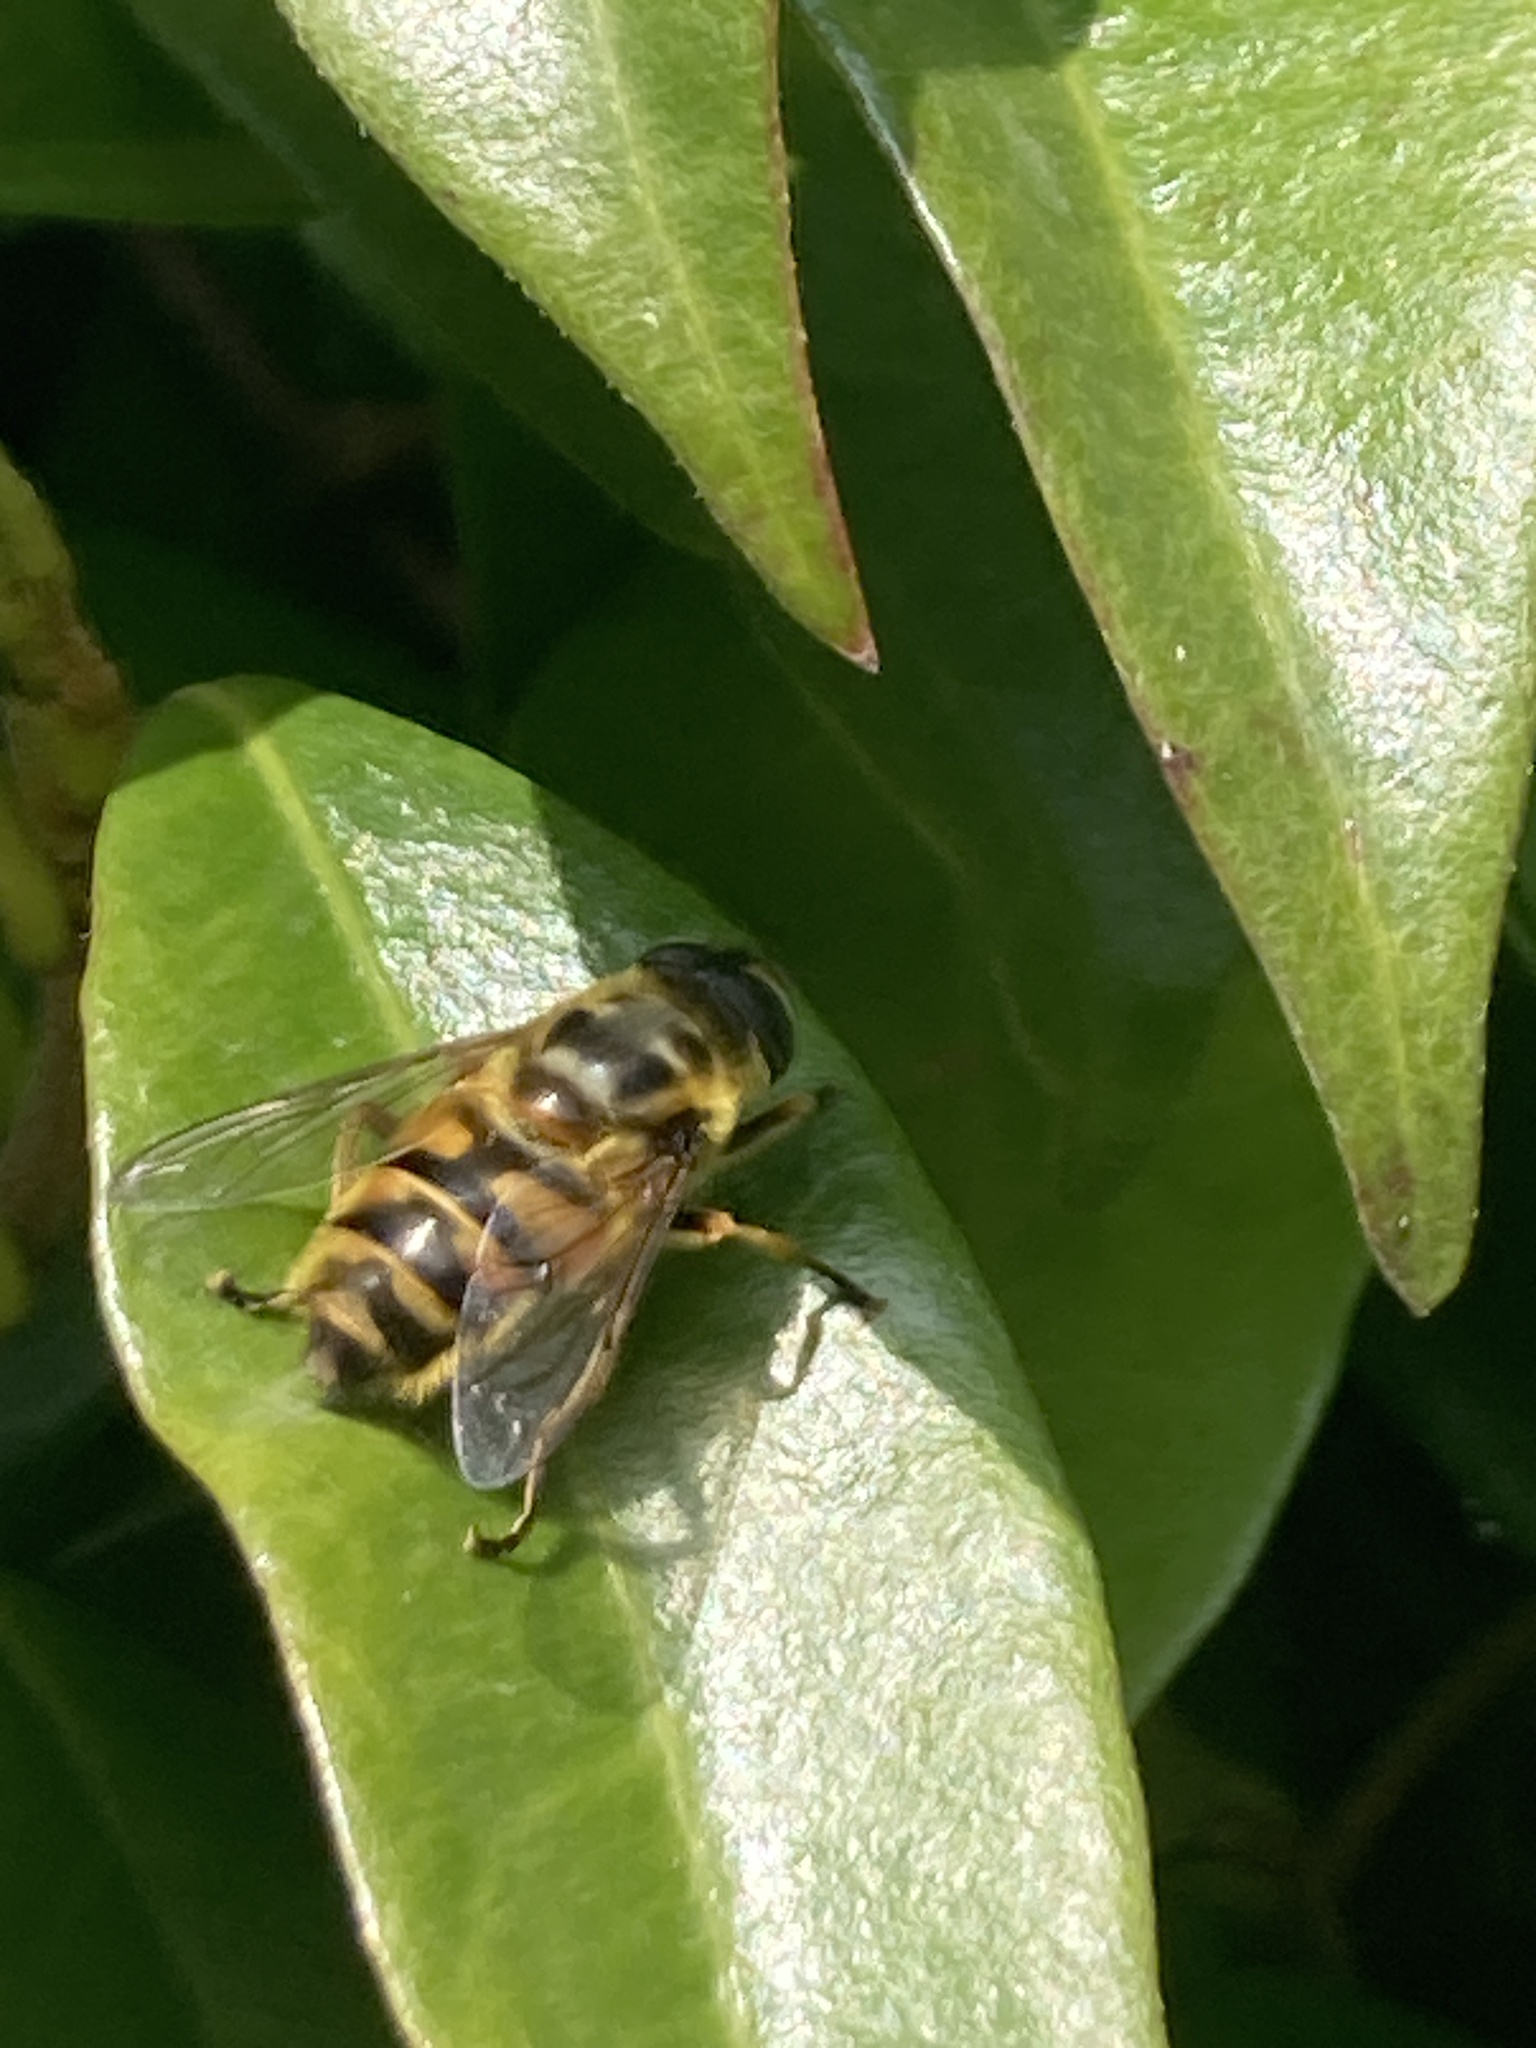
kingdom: Animalia
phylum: Arthropoda
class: Insecta
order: Diptera
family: Syrphidae
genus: Myathropa
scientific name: Myathropa florea
